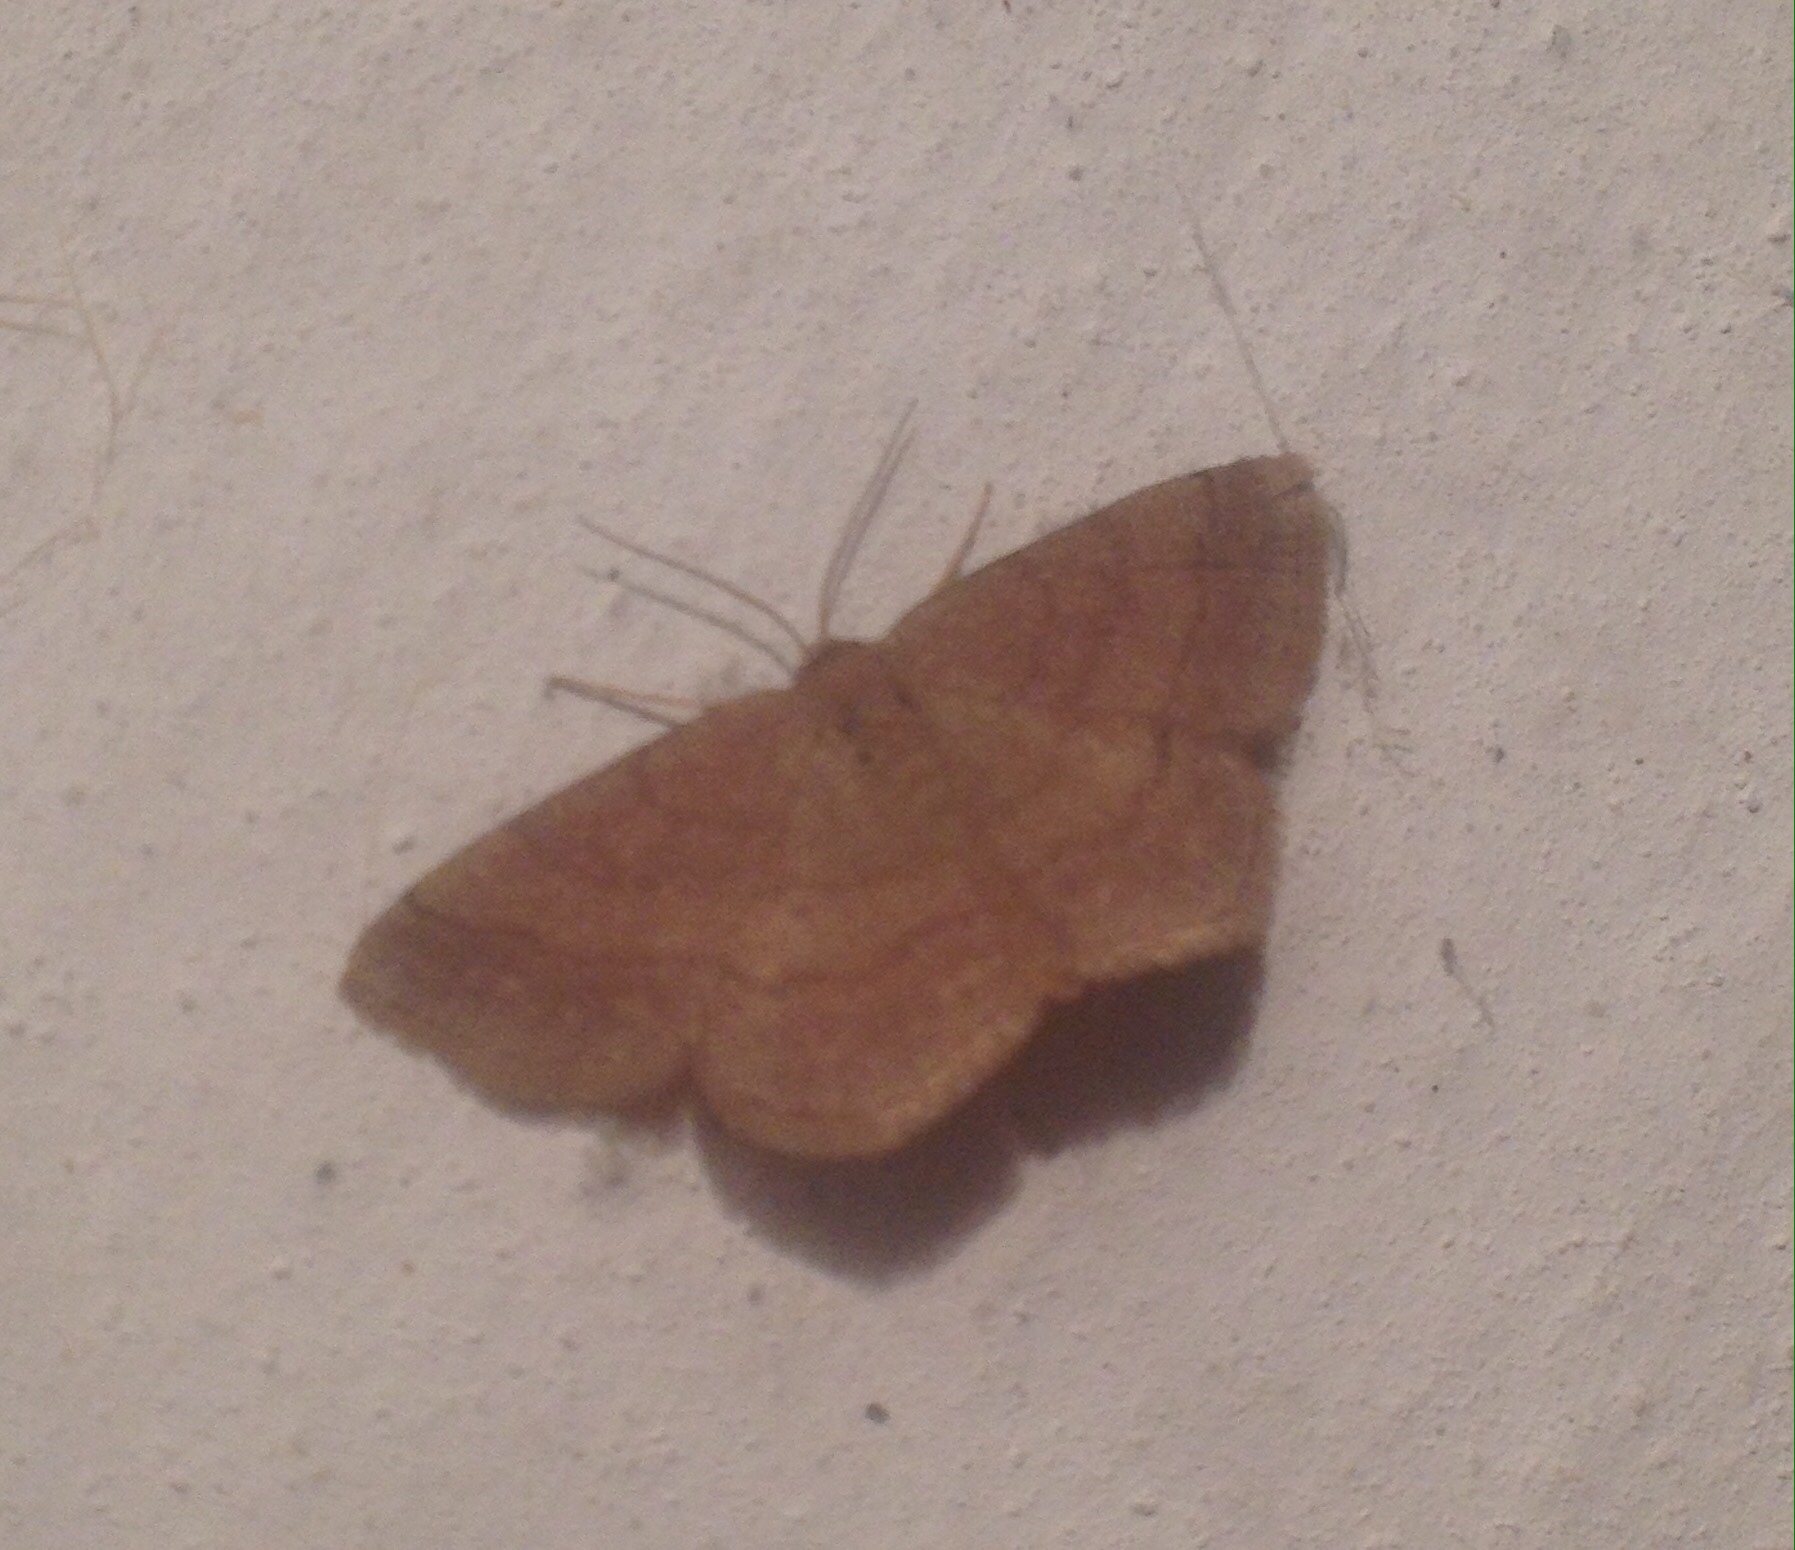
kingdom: Animalia
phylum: Arthropoda
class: Insecta
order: Lepidoptera
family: Geometridae
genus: Scopula
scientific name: Scopula rubiginata
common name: Tawny wave
